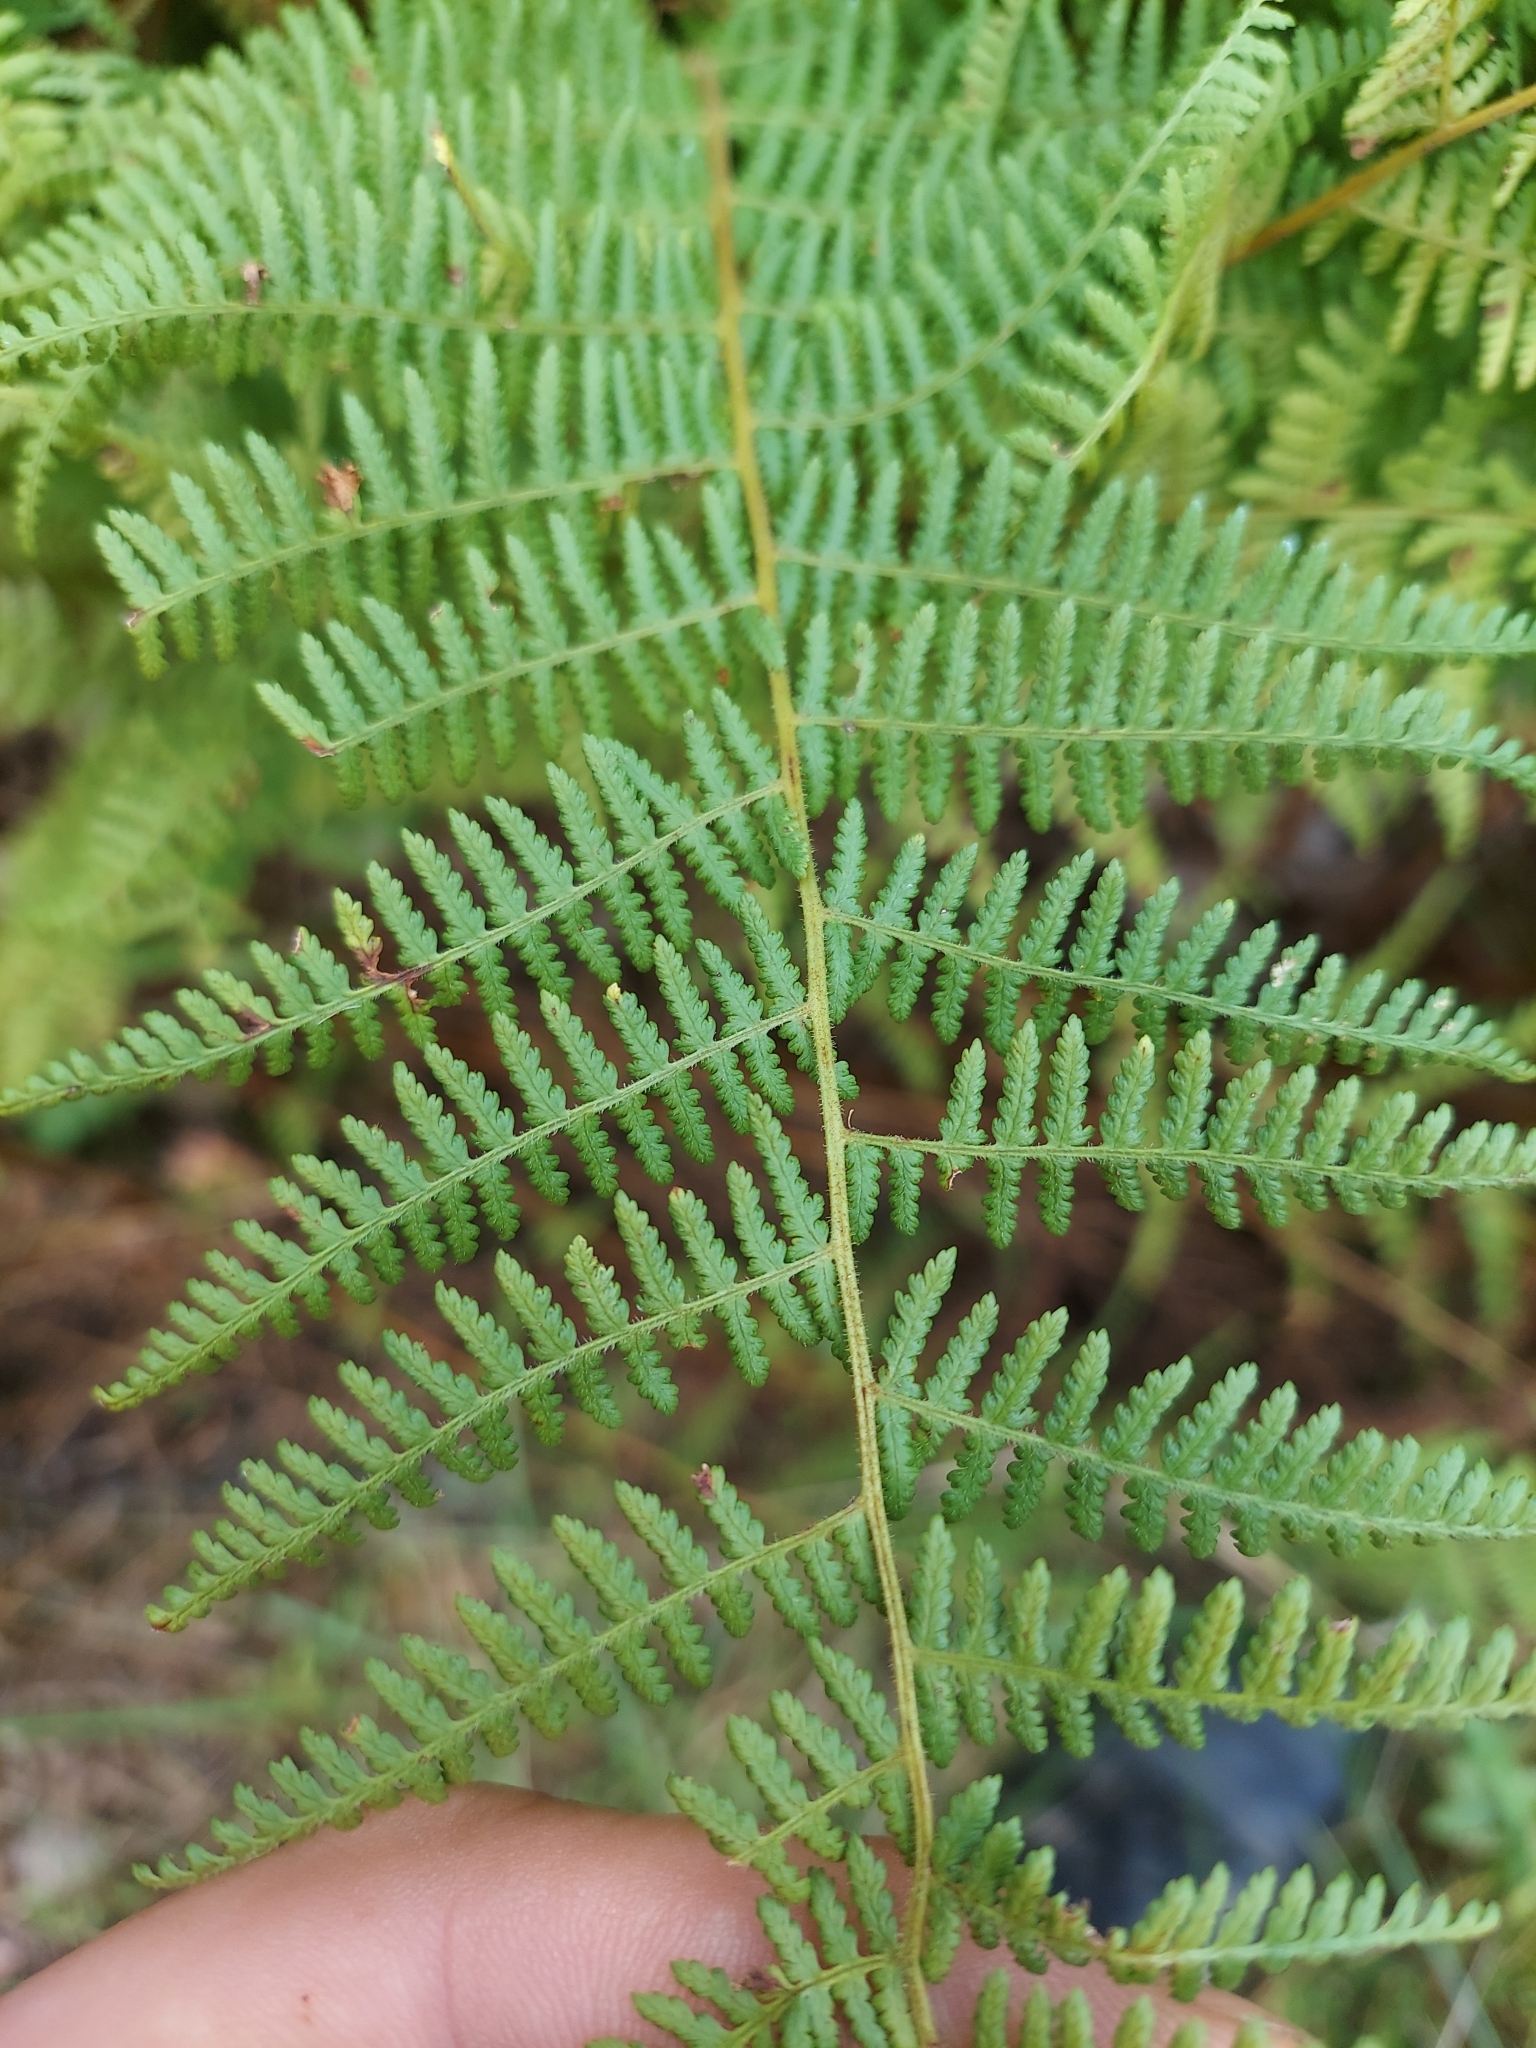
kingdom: Plantae
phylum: Tracheophyta
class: Polypodiopsida
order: Polypodiales
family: Dennstaedtiaceae
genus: Sitobolium
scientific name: Sitobolium punctilobum
